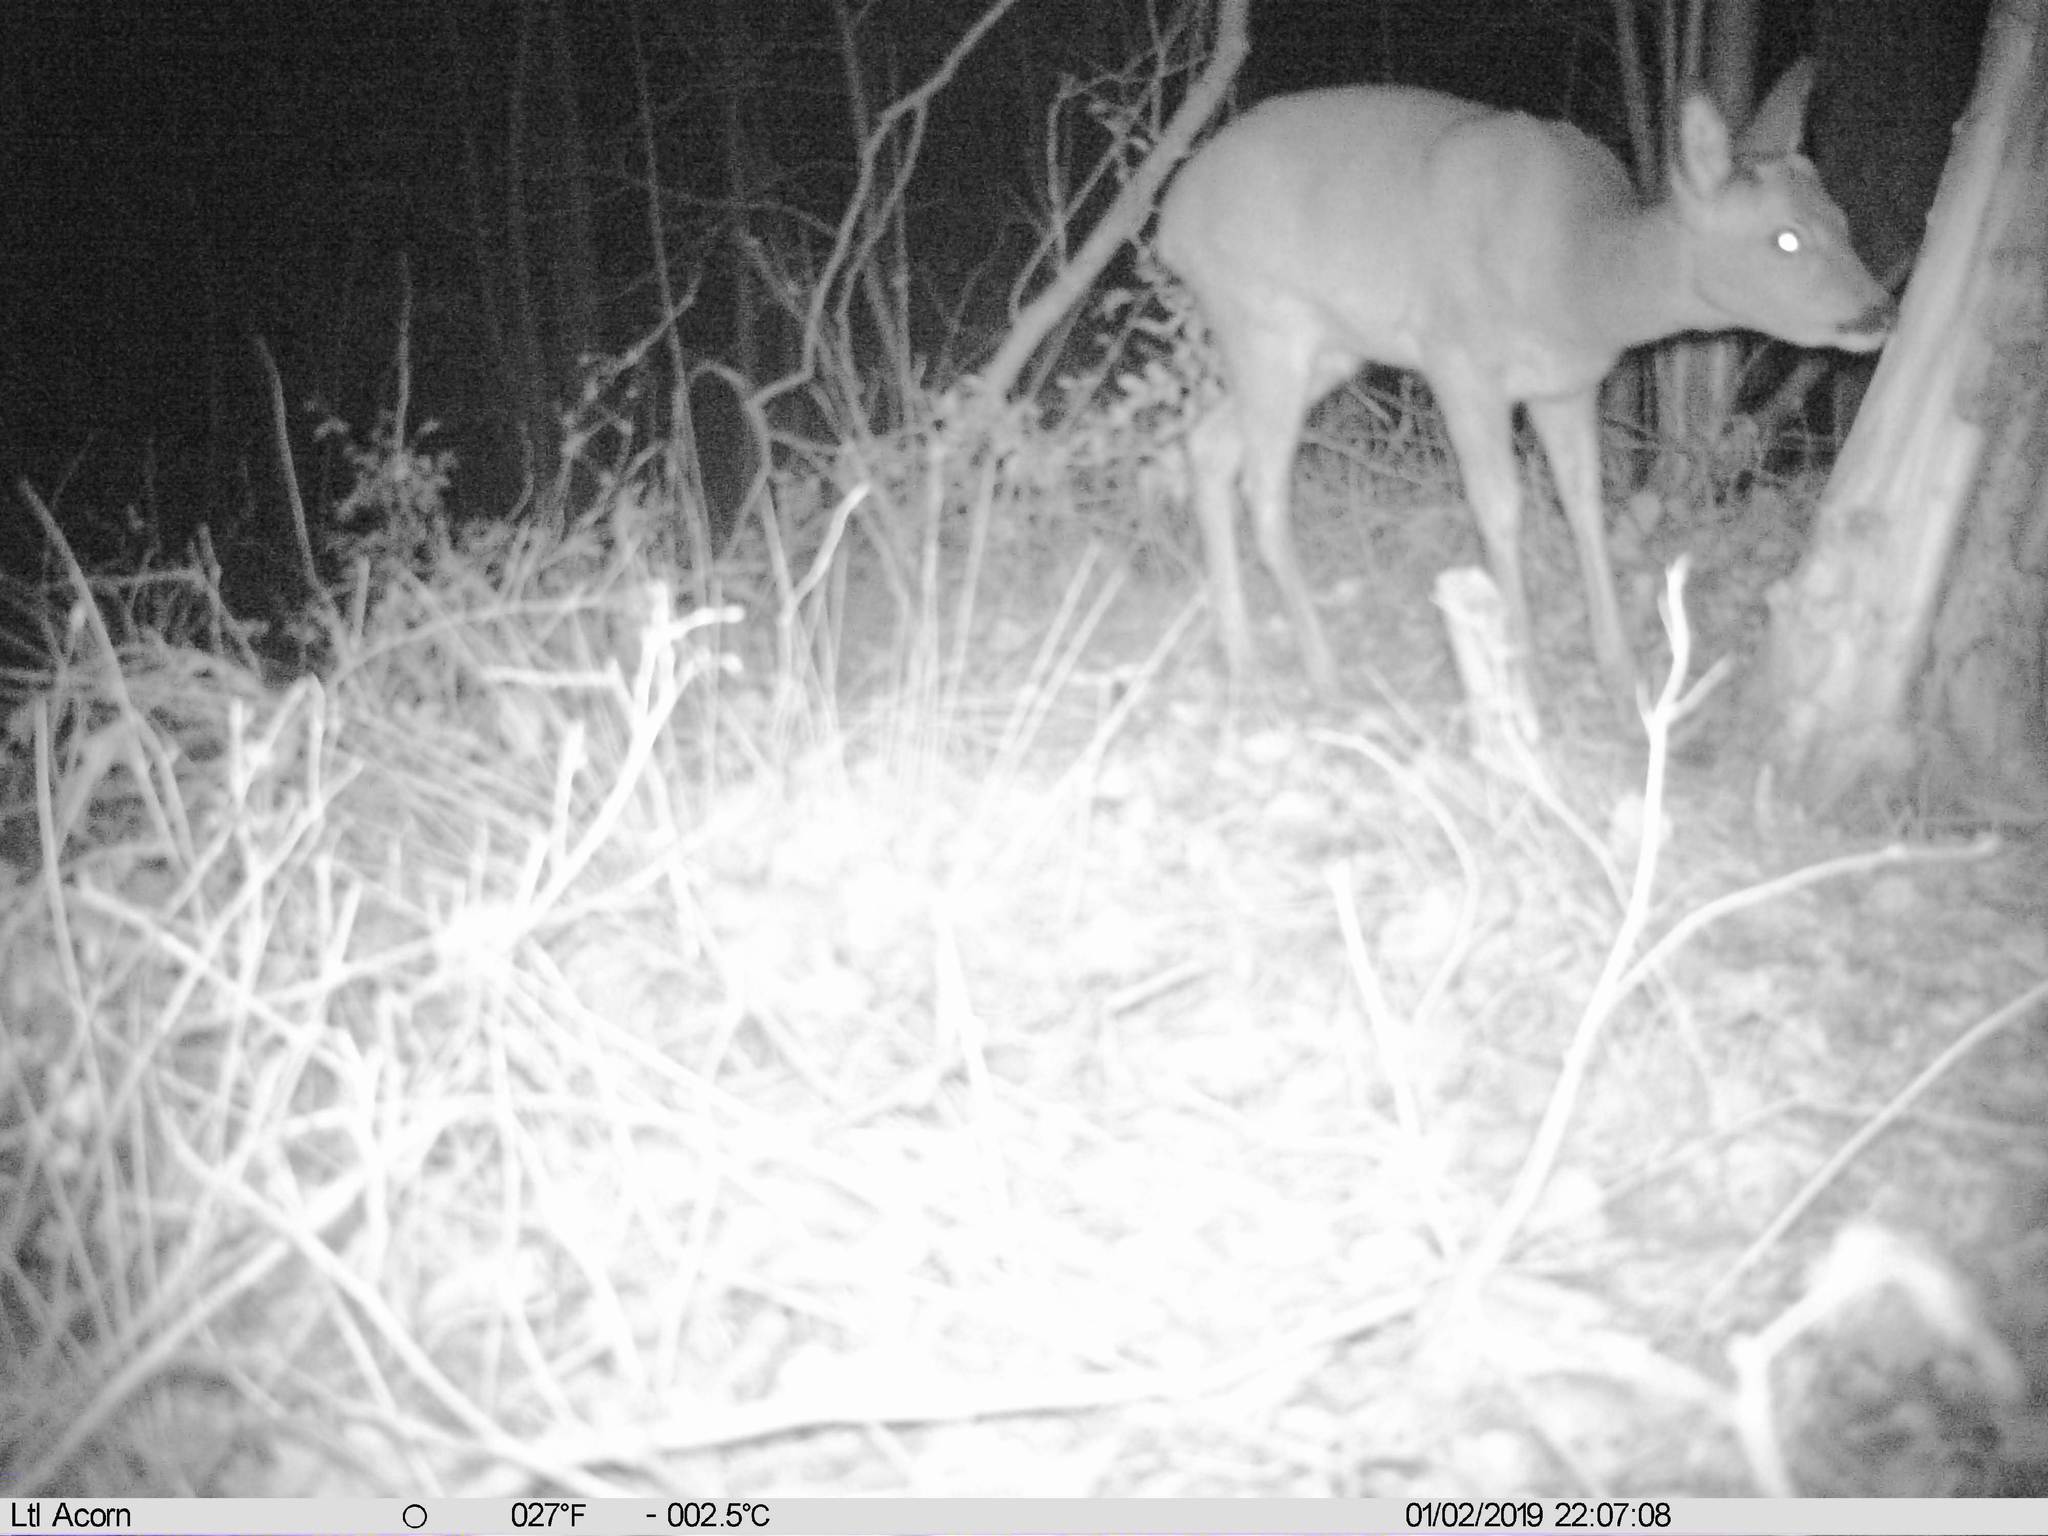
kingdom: Animalia
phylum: Chordata
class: Mammalia
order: Artiodactyla
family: Cervidae
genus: Capreolus
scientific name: Capreolus capreolus
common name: Western roe deer
